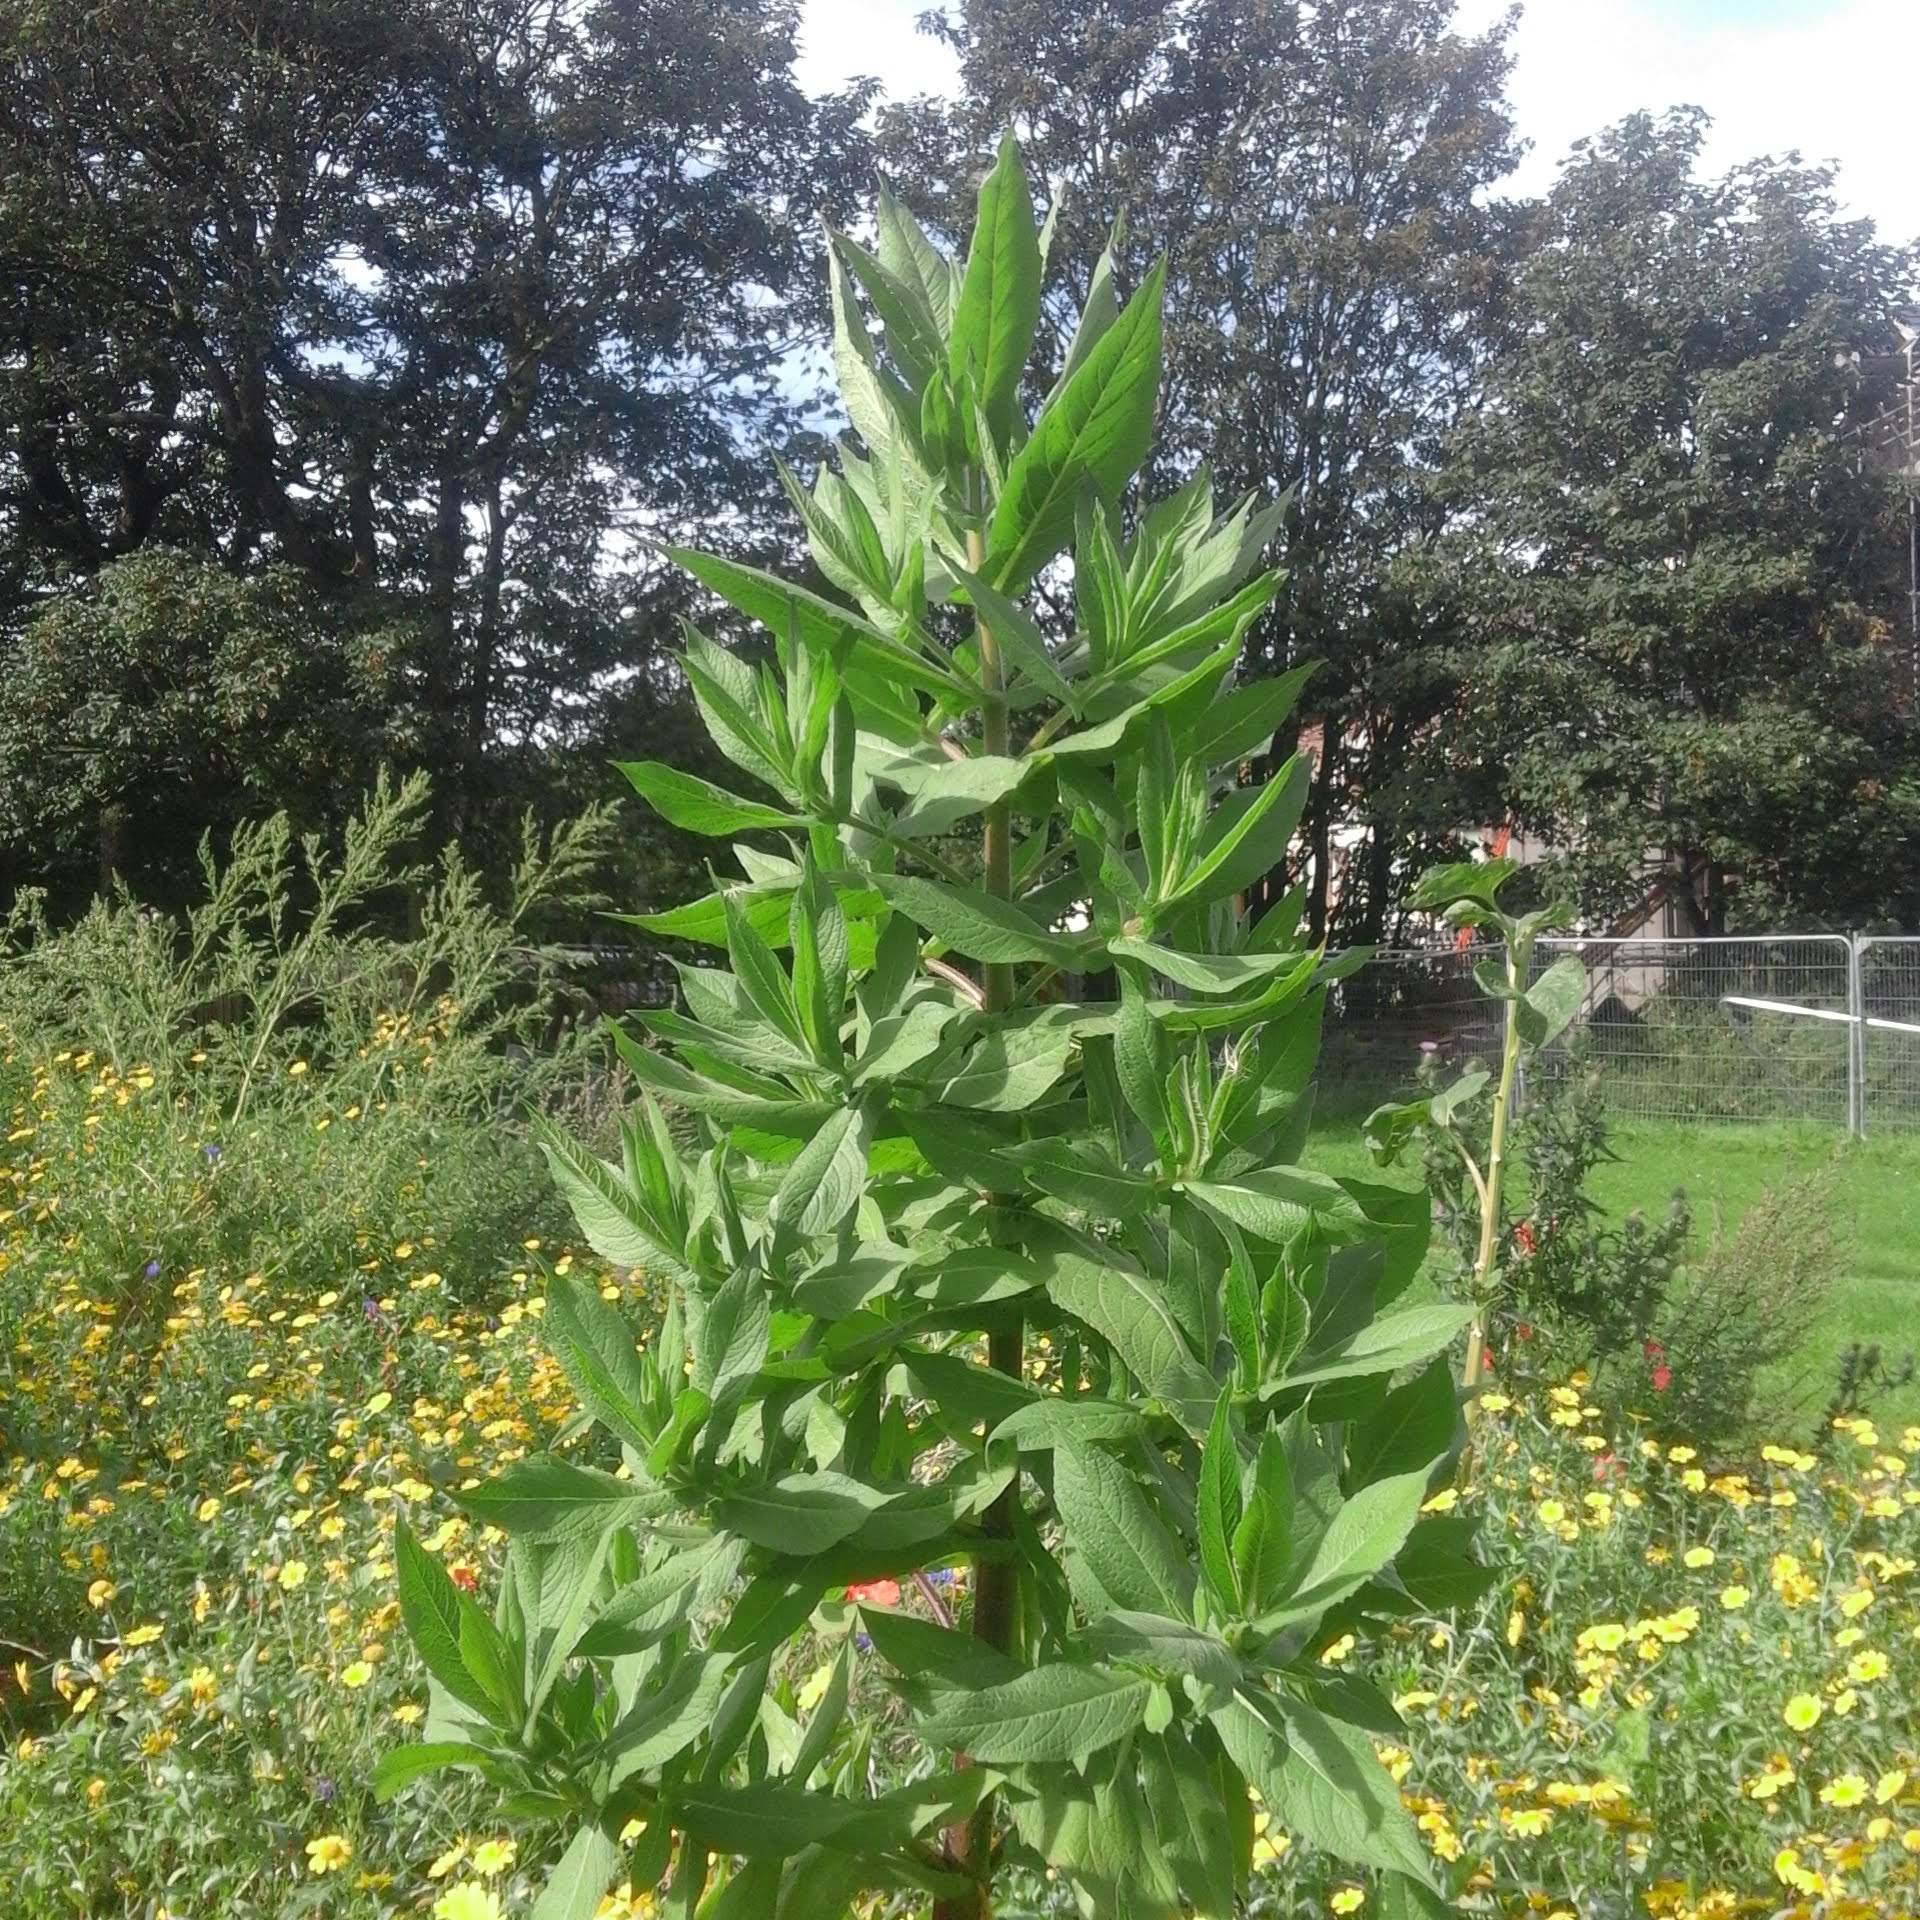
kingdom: Plantae
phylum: Tracheophyta
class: Magnoliopsida
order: Asterales
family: Asteraceae
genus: Guizotia
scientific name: Guizotia scabra
